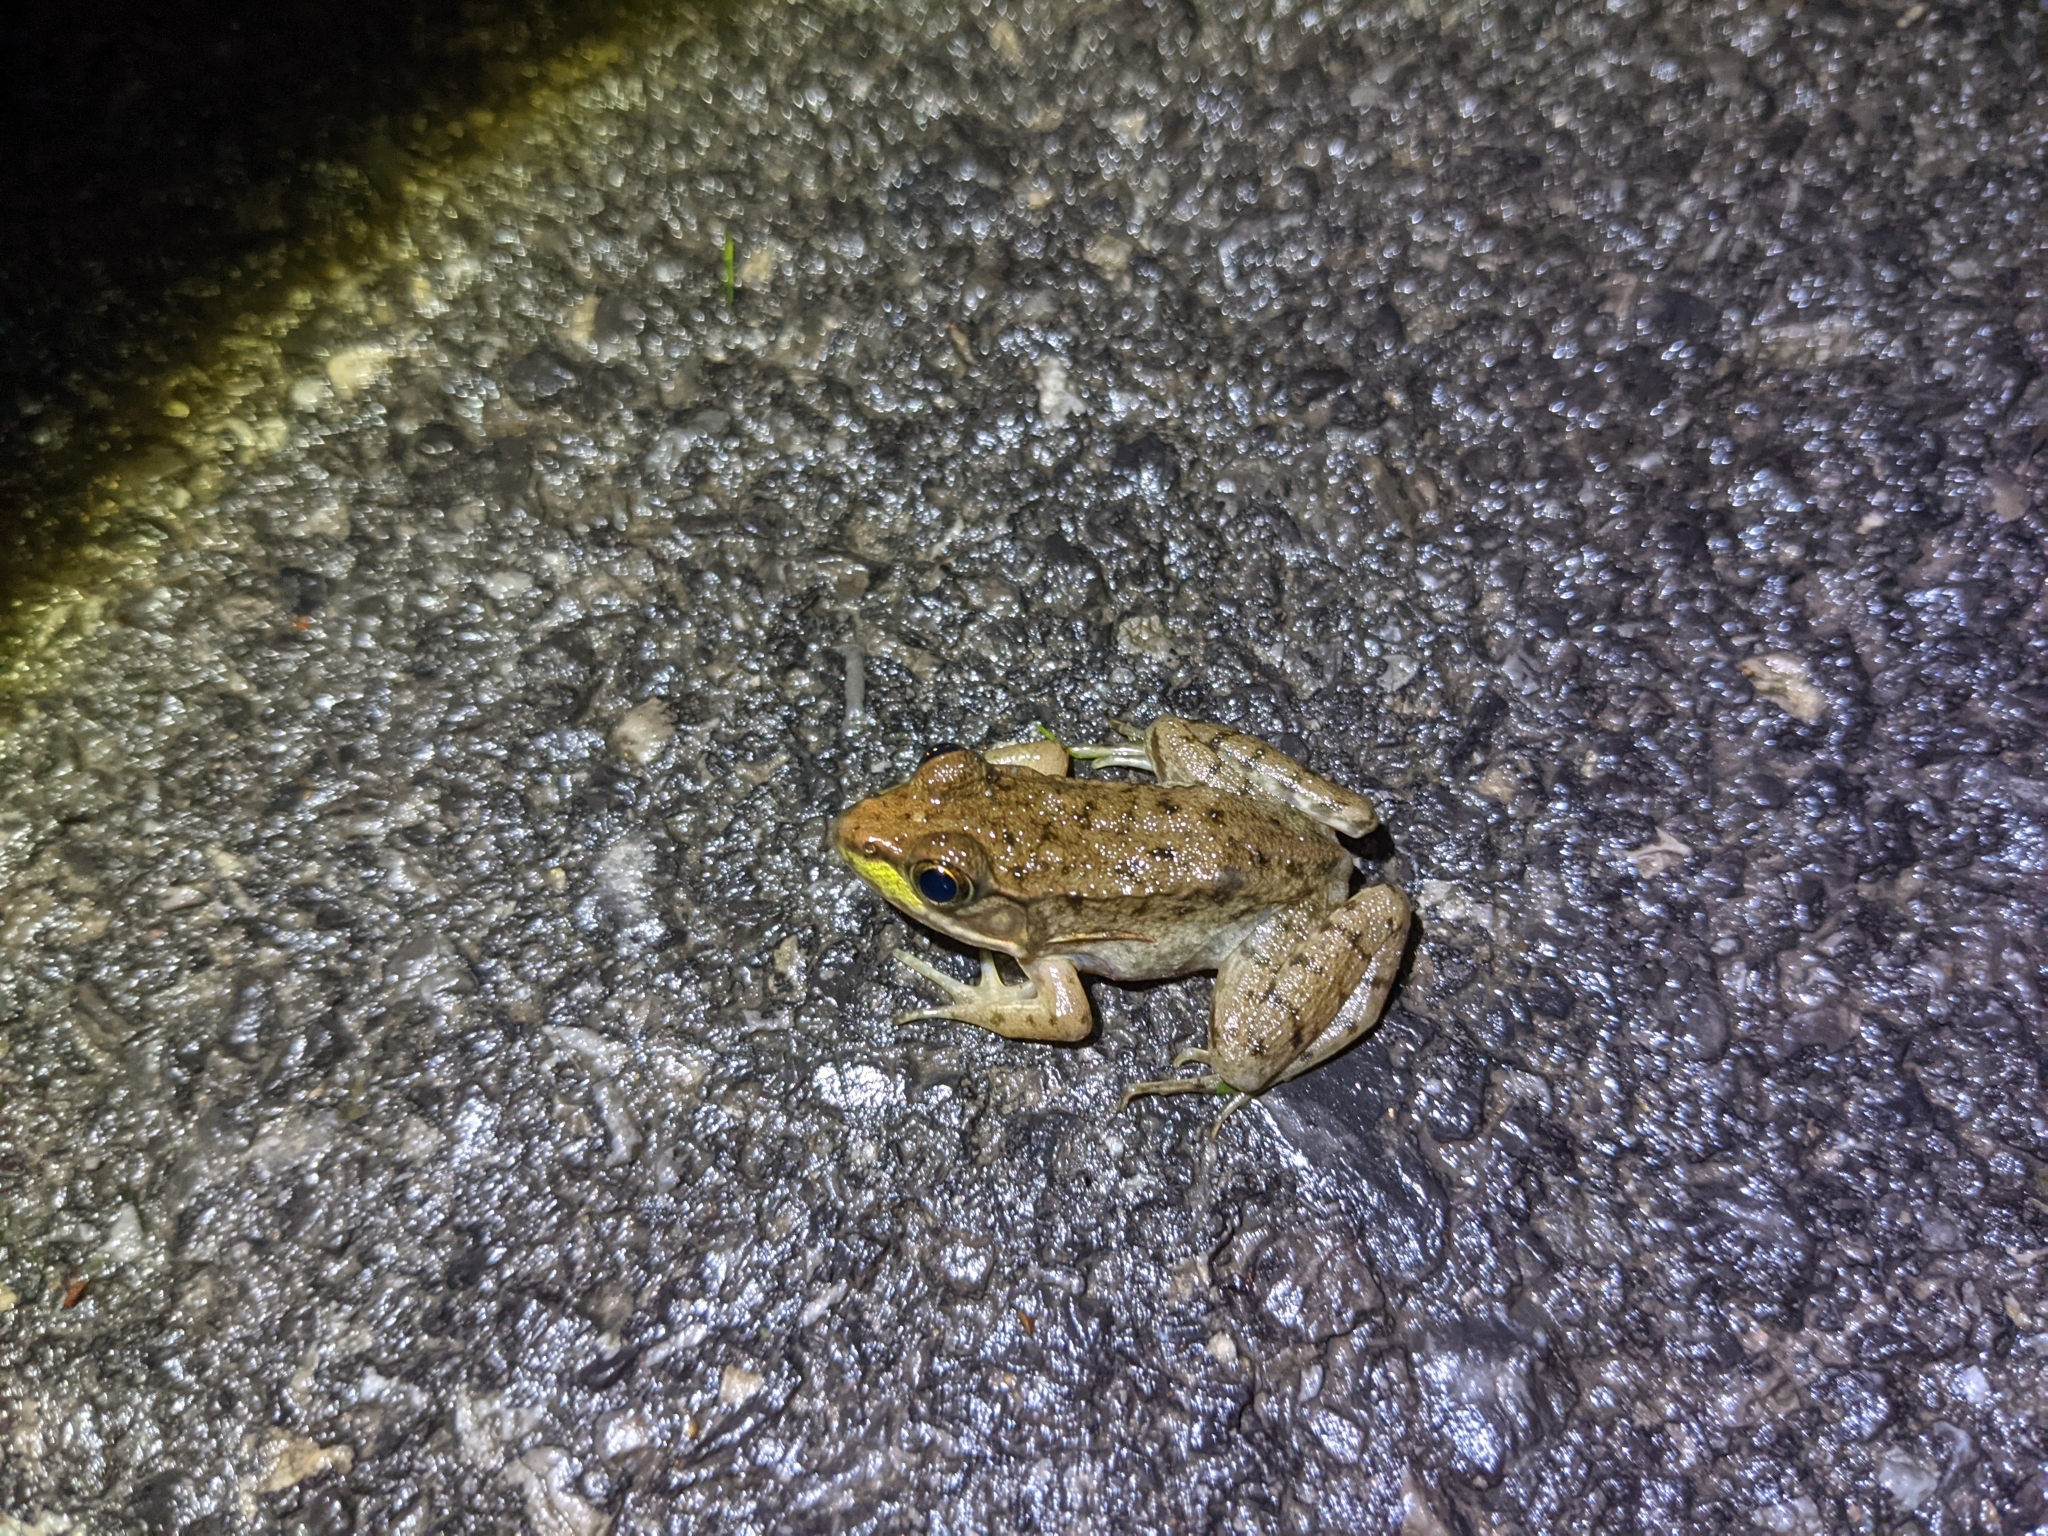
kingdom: Animalia
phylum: Chordata
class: Amphibia
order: Anura
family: Ranidae
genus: Lithobates
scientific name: Lithobates clamitans
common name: Green frog
